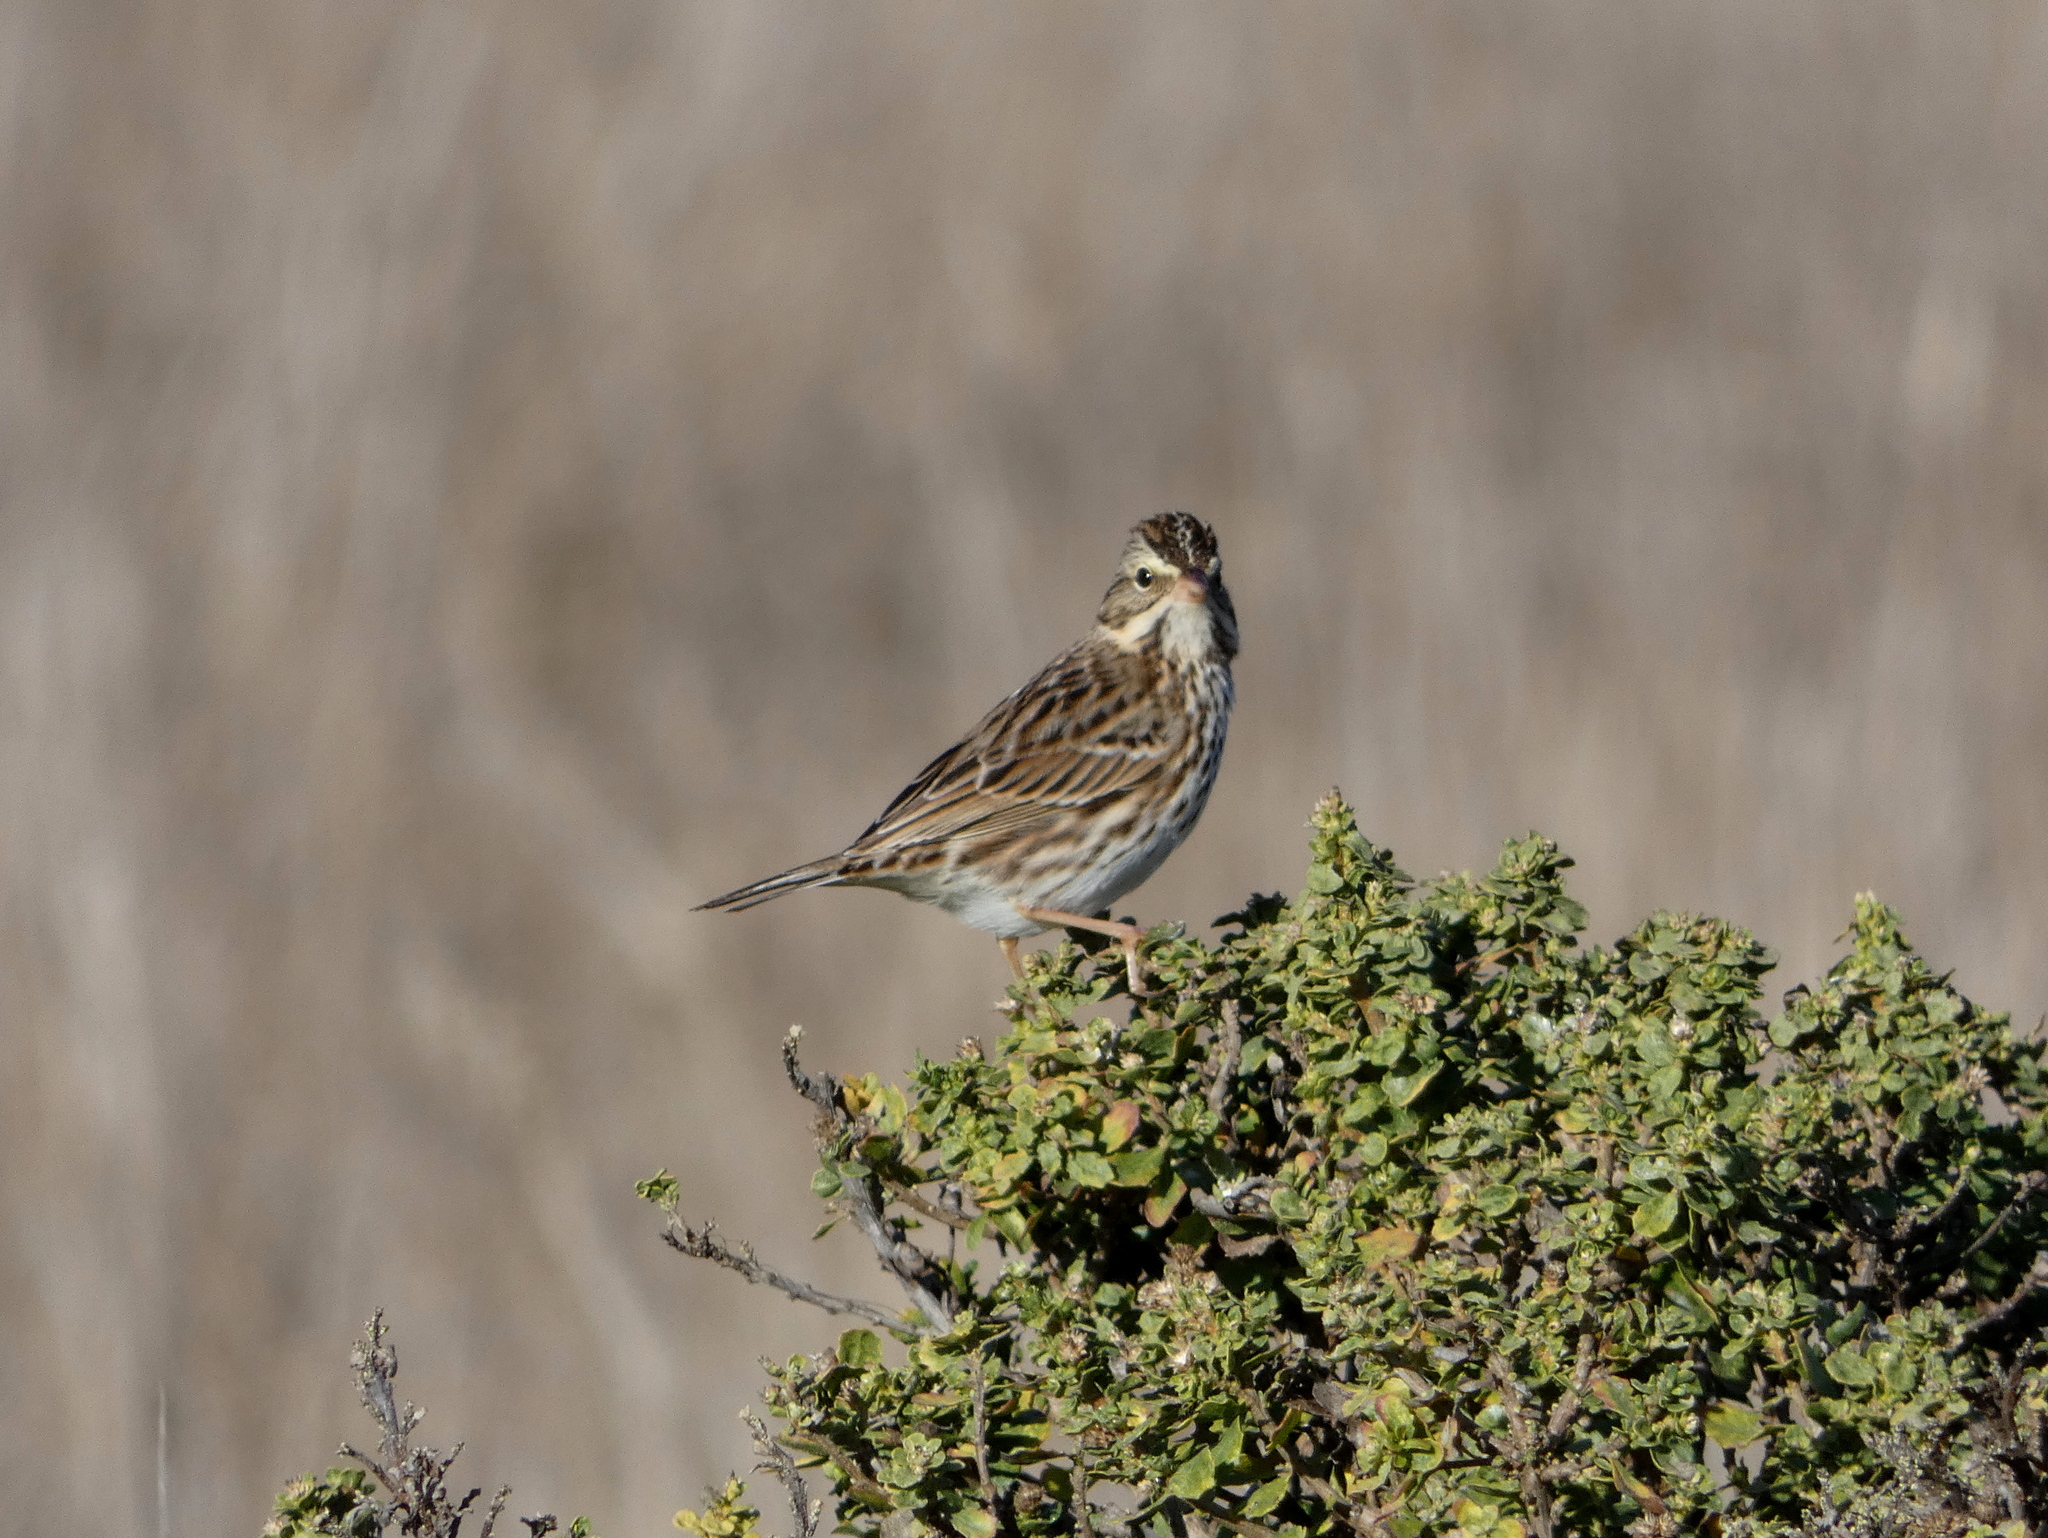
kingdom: Animalia
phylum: Chordata
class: Aves
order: Passeriformes
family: Passerellidae
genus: Passerculus
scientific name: Passerculus sandwichensis
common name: Savannah sparrow
